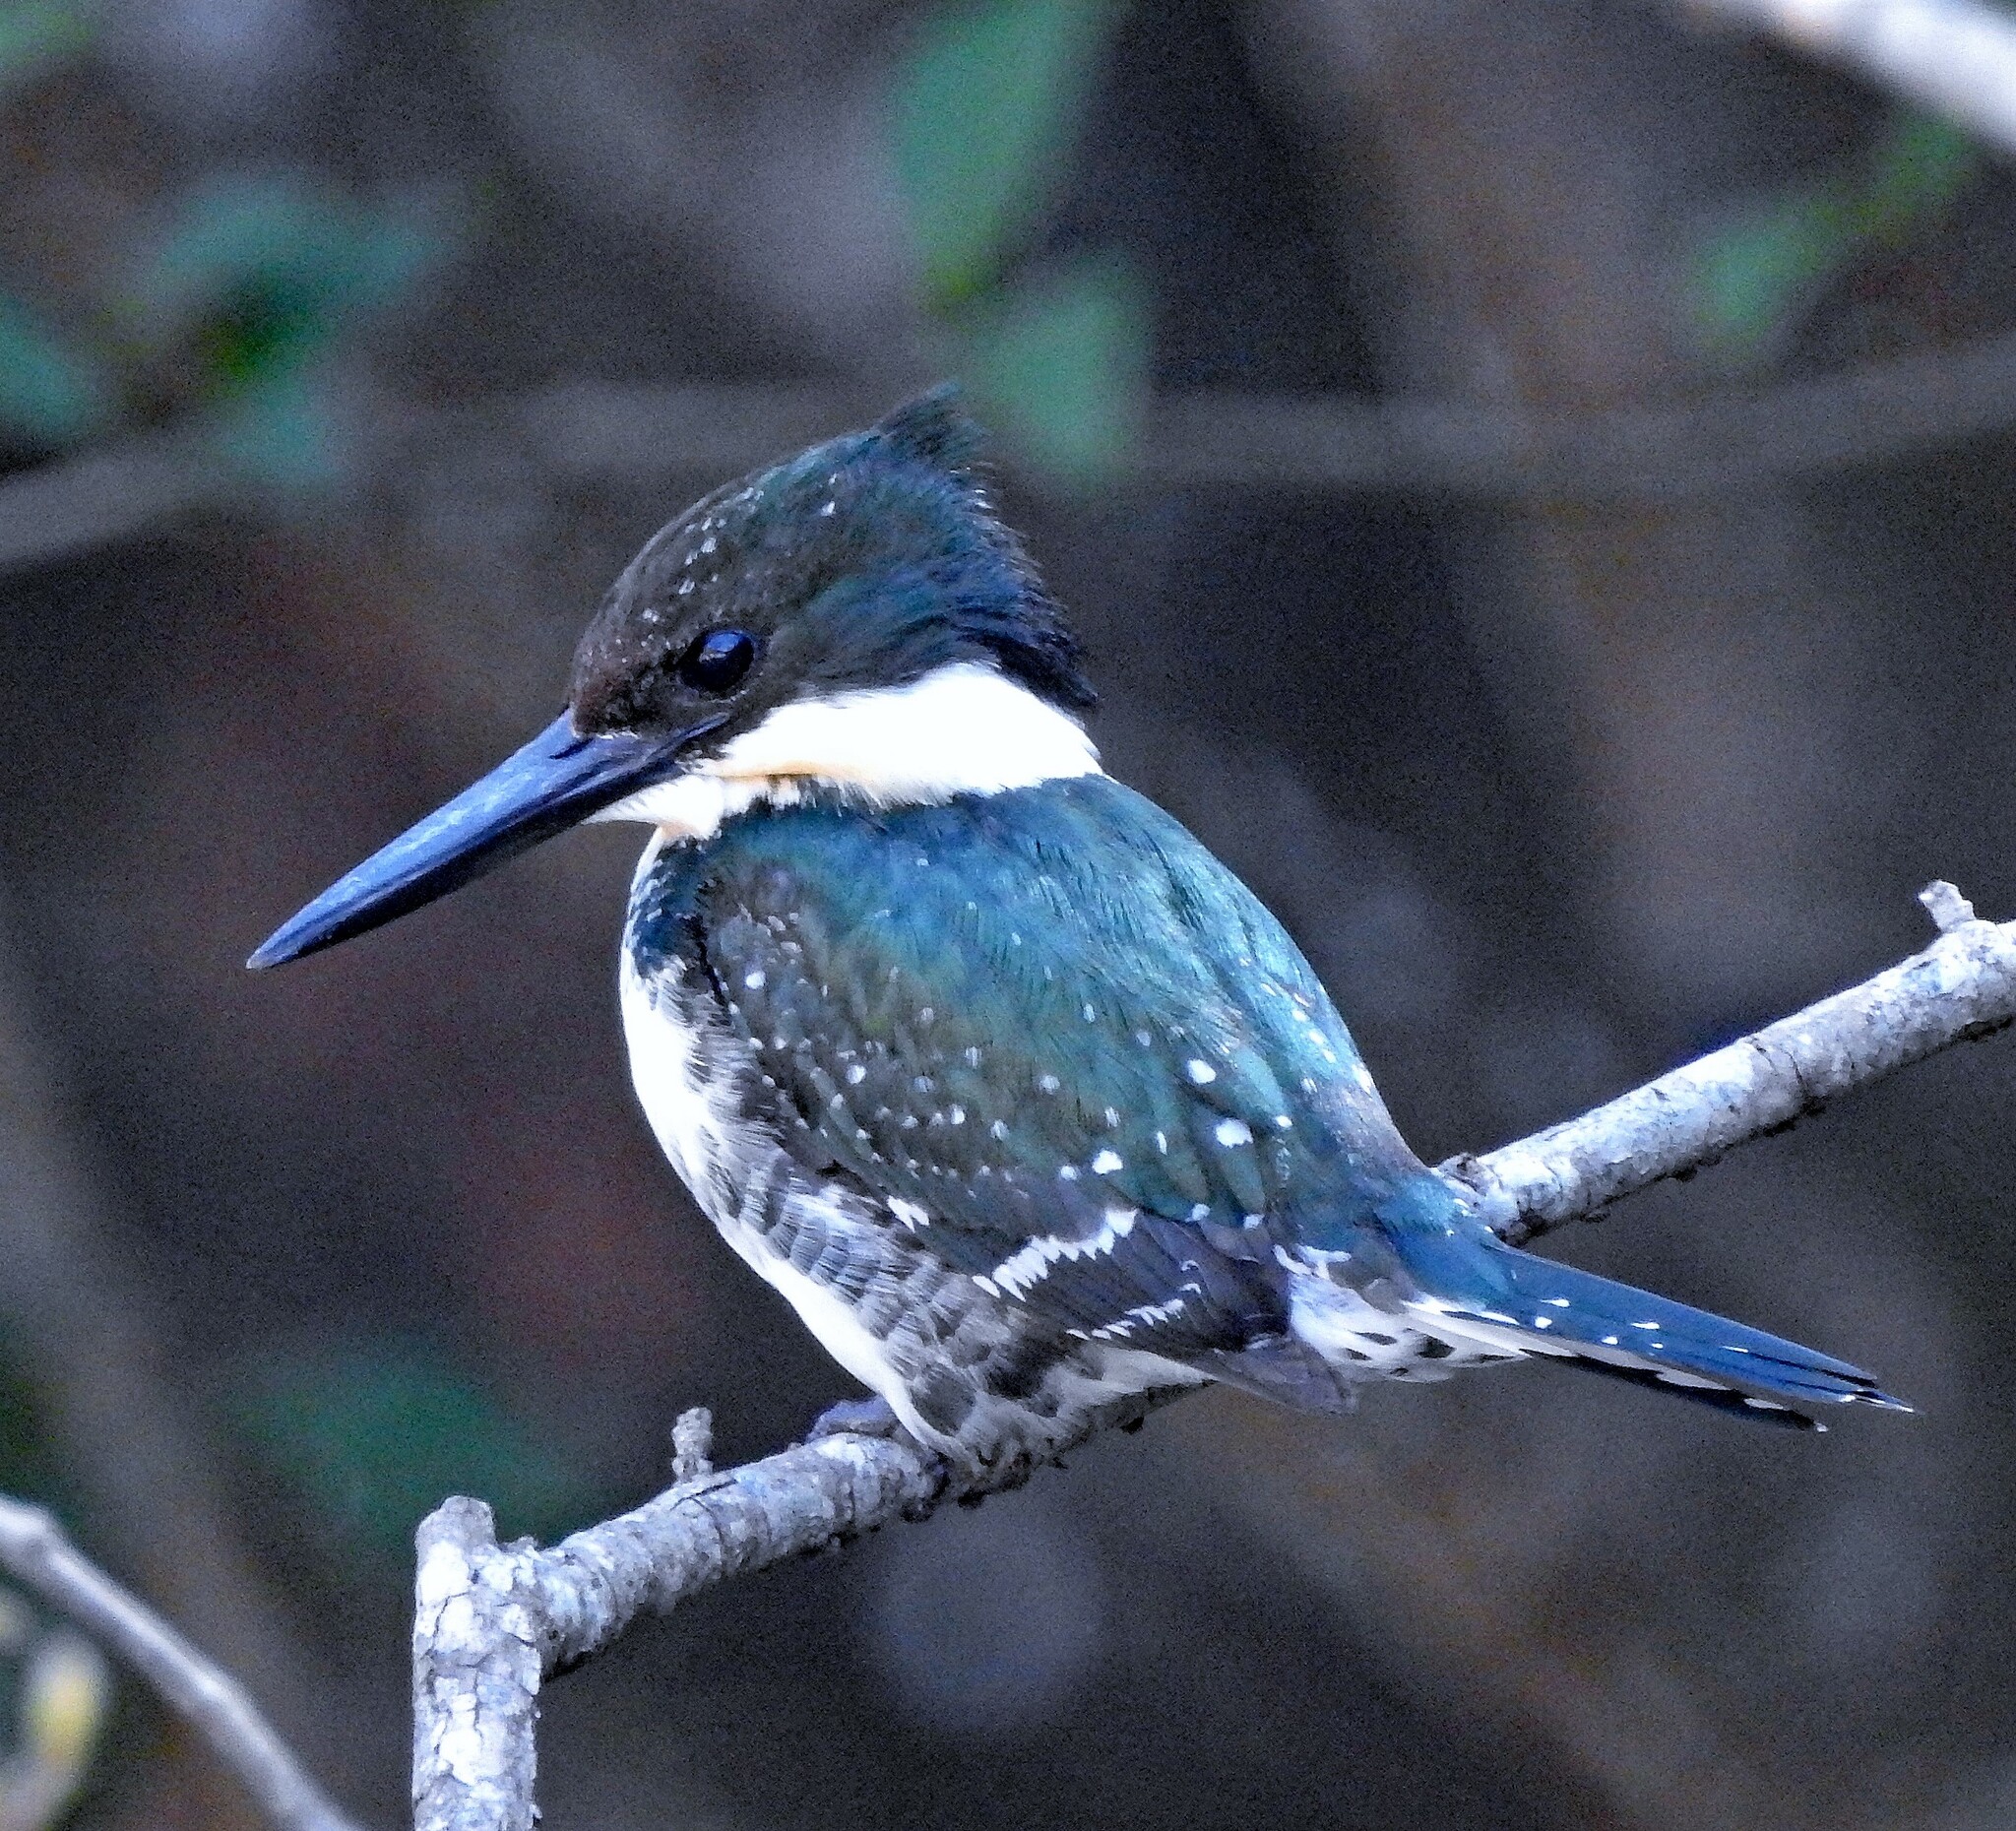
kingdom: Animalia
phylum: Chordata
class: Aves
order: Coraciiformes
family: Alcedinidae
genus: Chloroceryle
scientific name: Chloroceryle americana
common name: Green kingfisher
